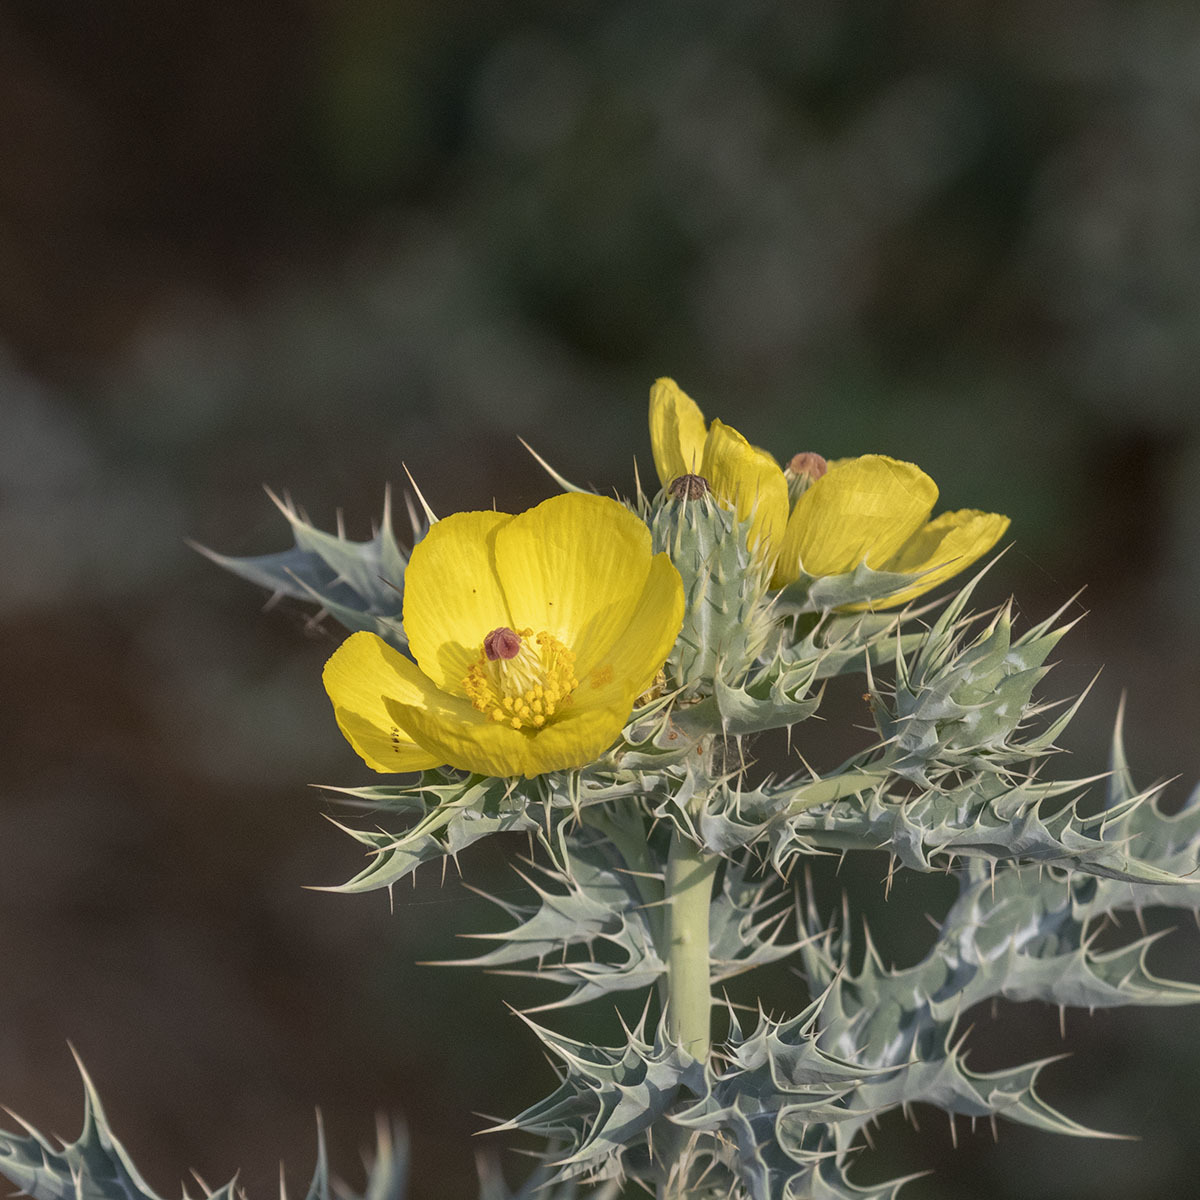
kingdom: Plantae
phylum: Tracheophyta
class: Magnoliopsida
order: Ranunculales
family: Papaveraceae
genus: Argemone
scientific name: Argemone mexicana
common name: Mexican poppy
